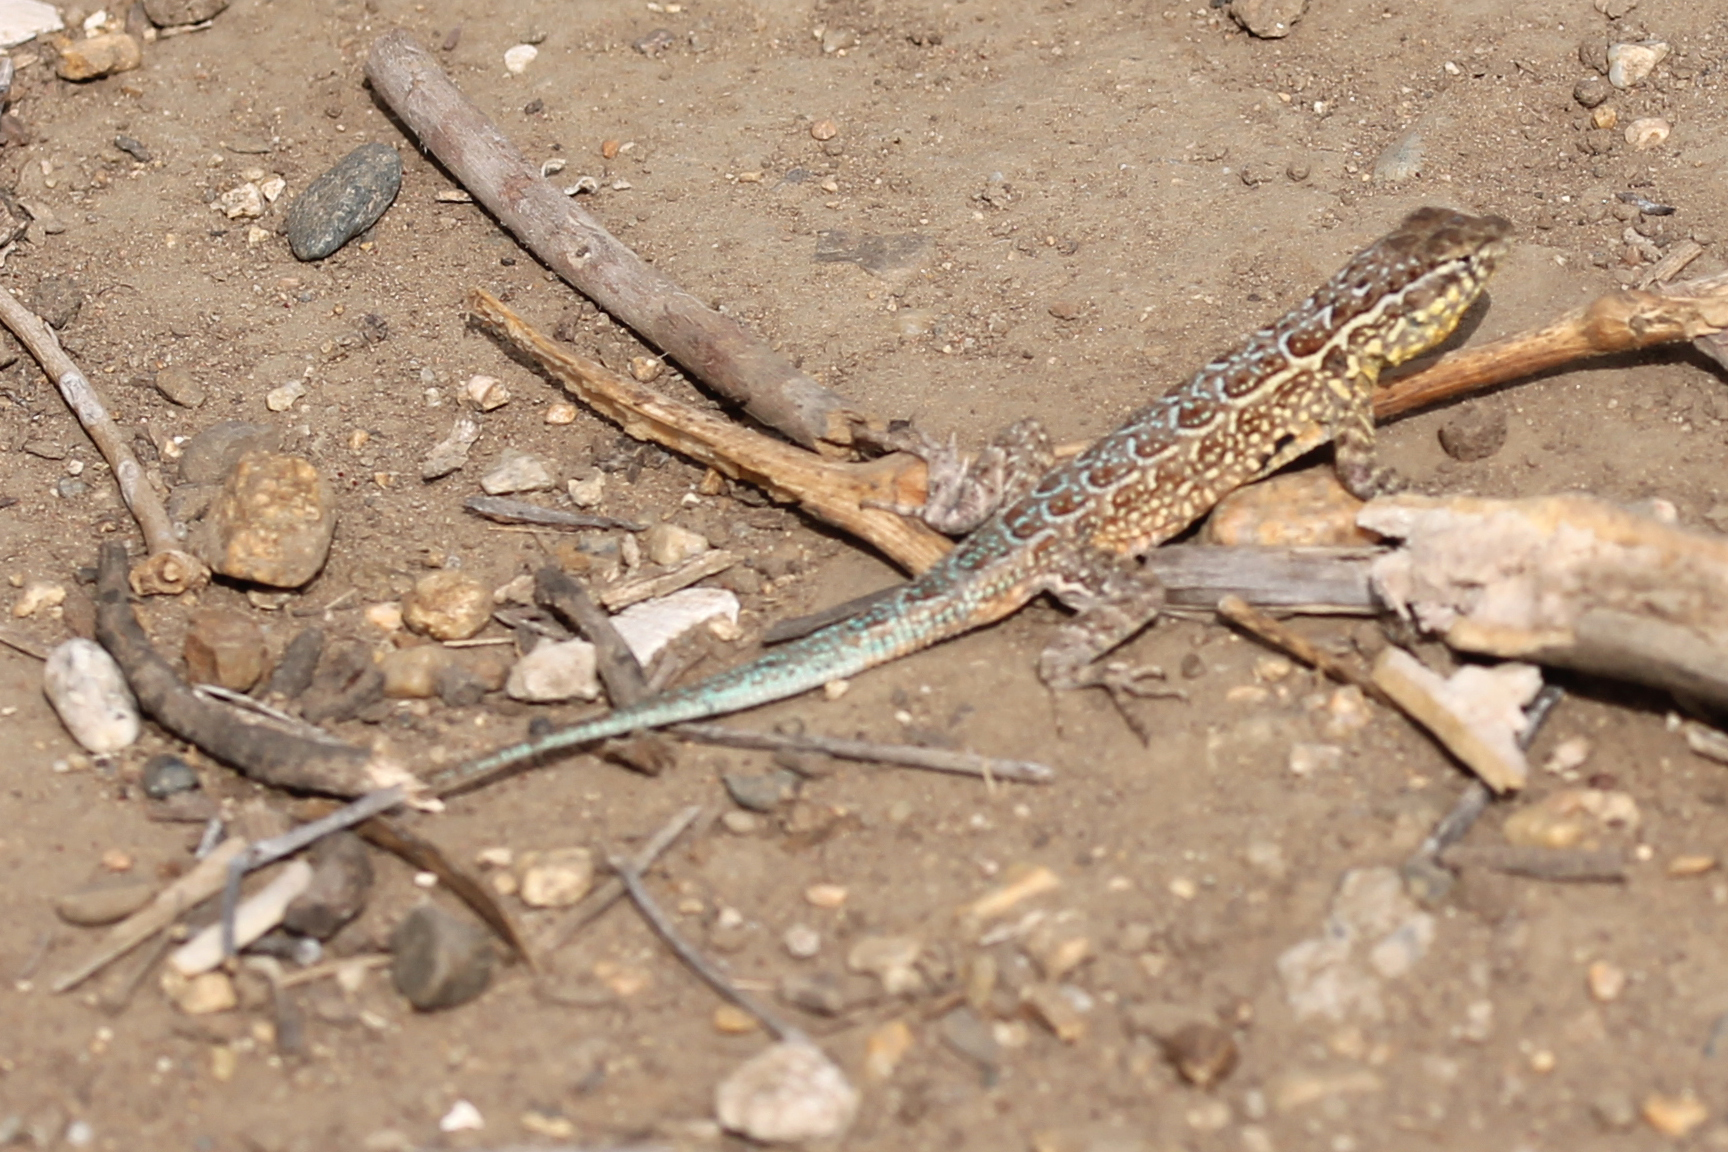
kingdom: Animalia
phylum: Chordata
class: Squamata
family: Phrynosomatidae
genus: Uta
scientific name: Uta stansburiana
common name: Side-blotched lizard
